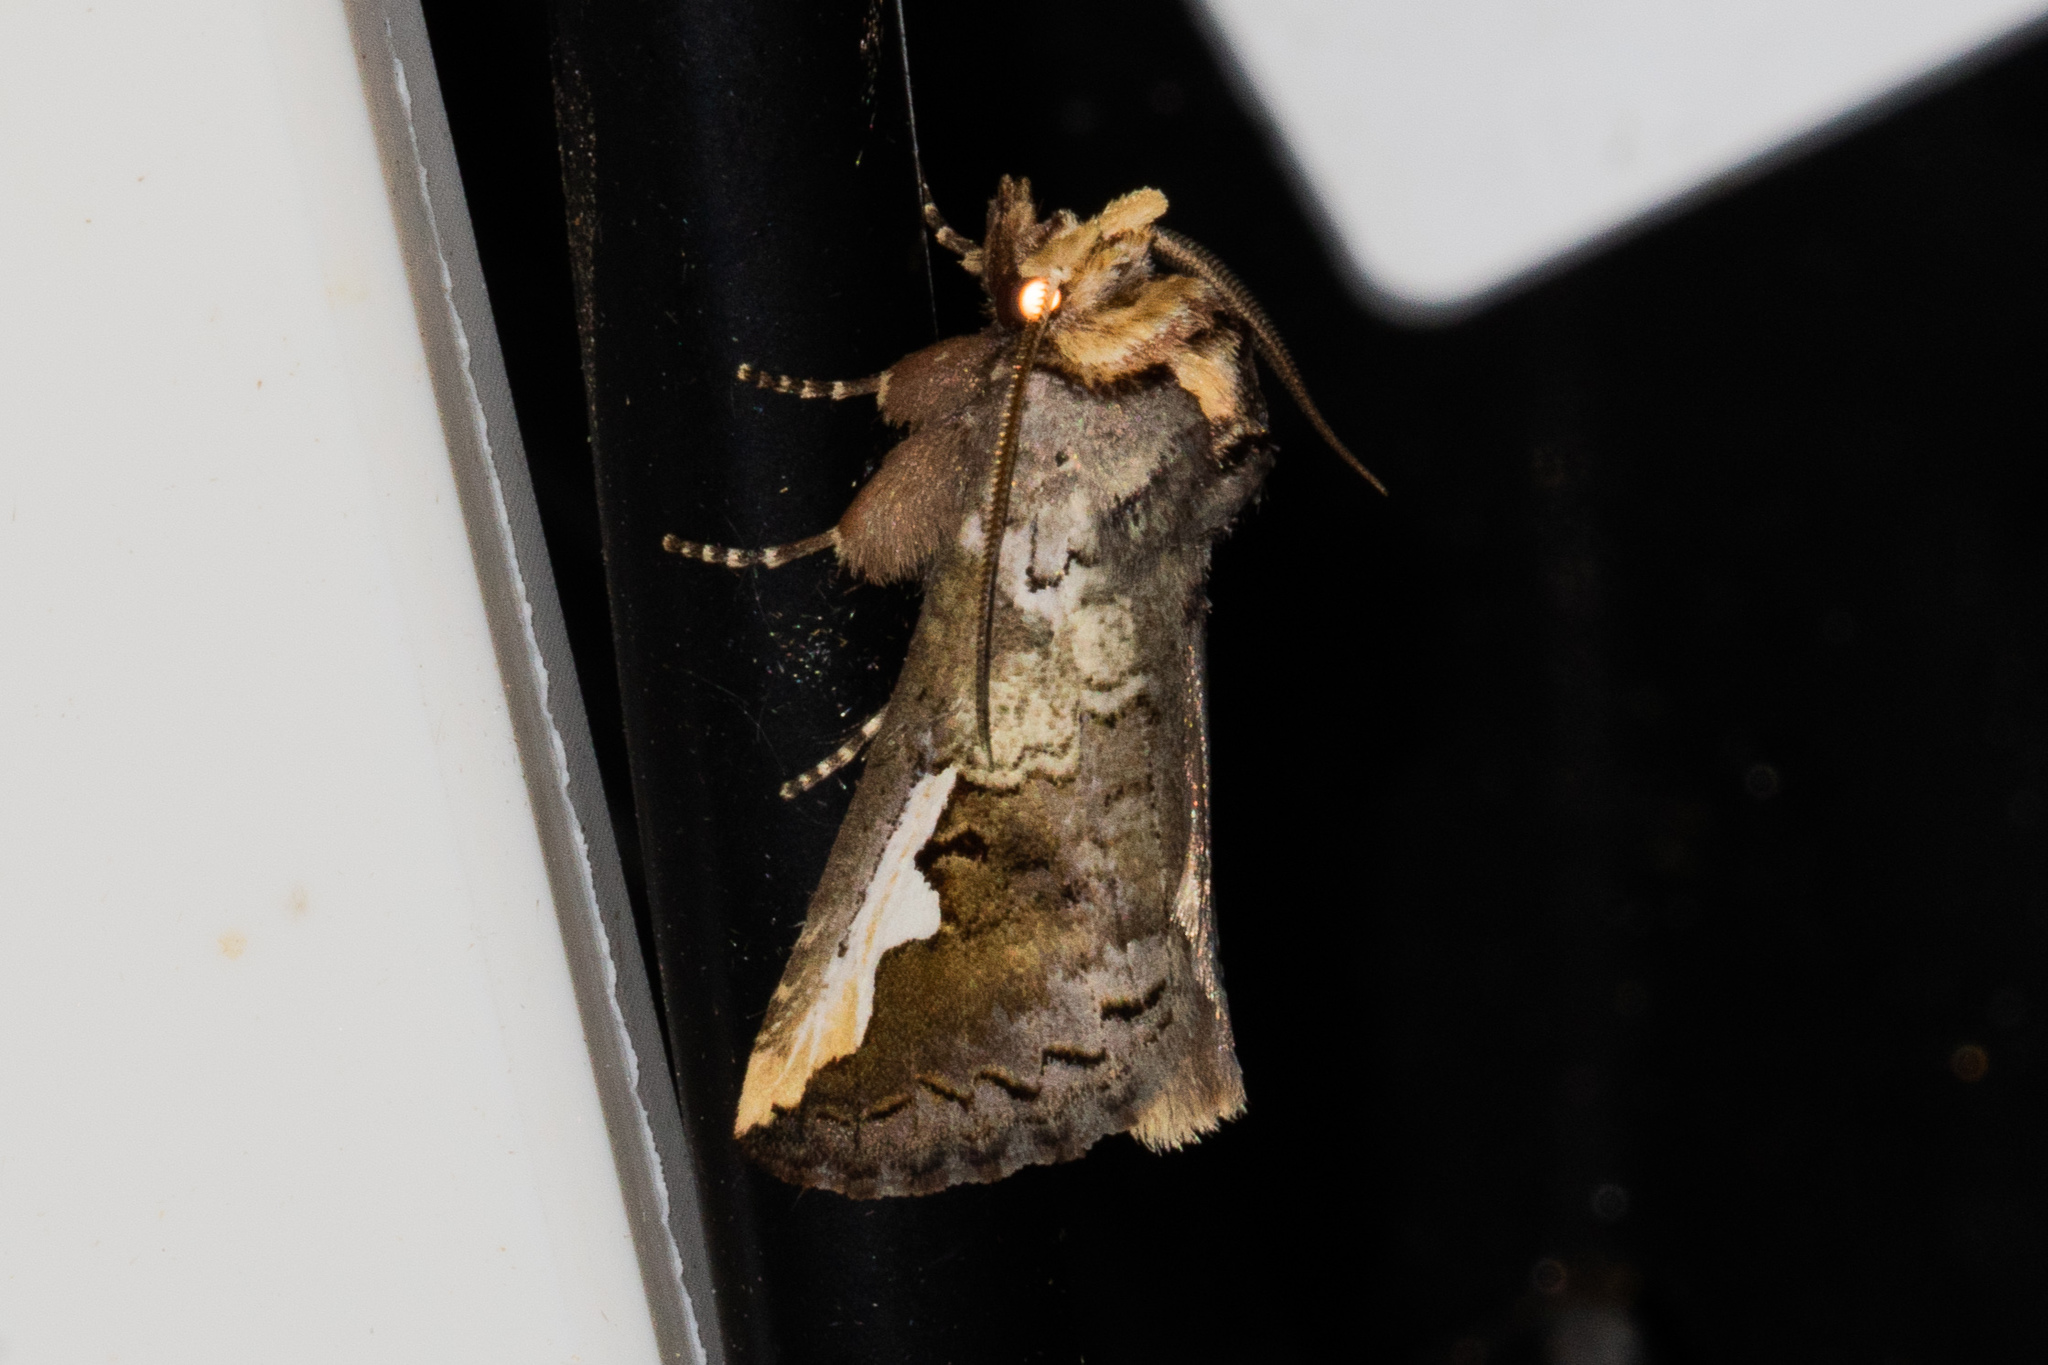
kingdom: Animalia
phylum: Arthropoda
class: Insecta
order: Lepidoptera
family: Notodontidae
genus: Symmerista
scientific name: Symmerista
